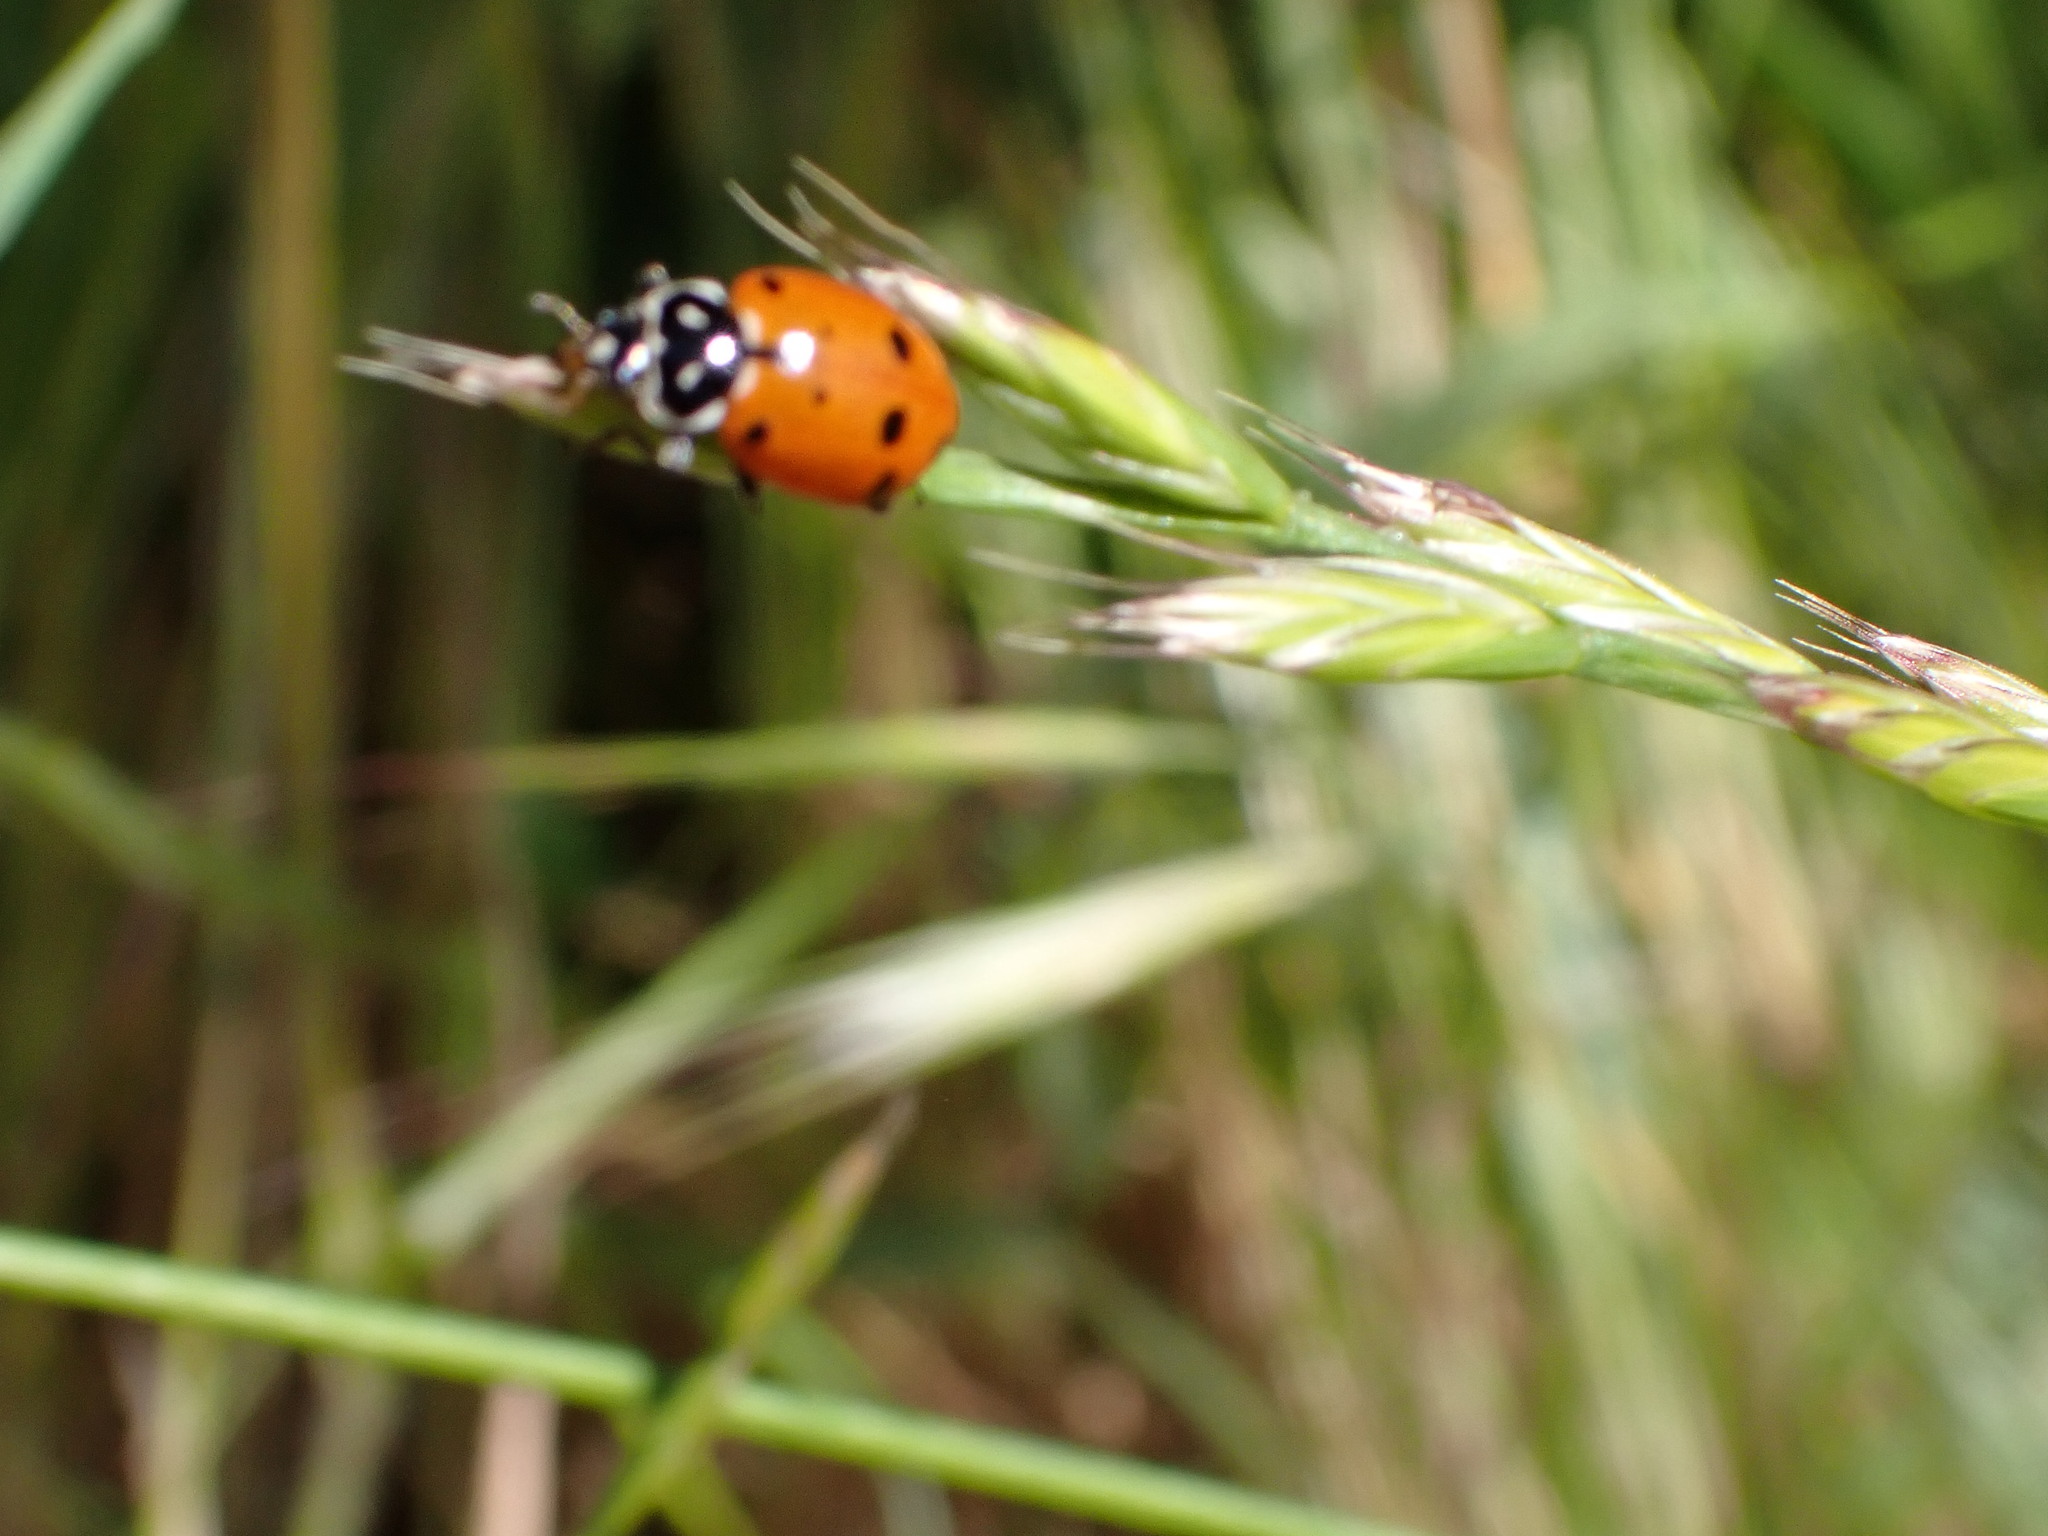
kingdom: Animalia
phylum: Arthropoda
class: Insecta
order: Coleoptera
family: Coccinellidae
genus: Hippodamia
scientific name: Hippodamia convergens
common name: Convergent lady beetle
